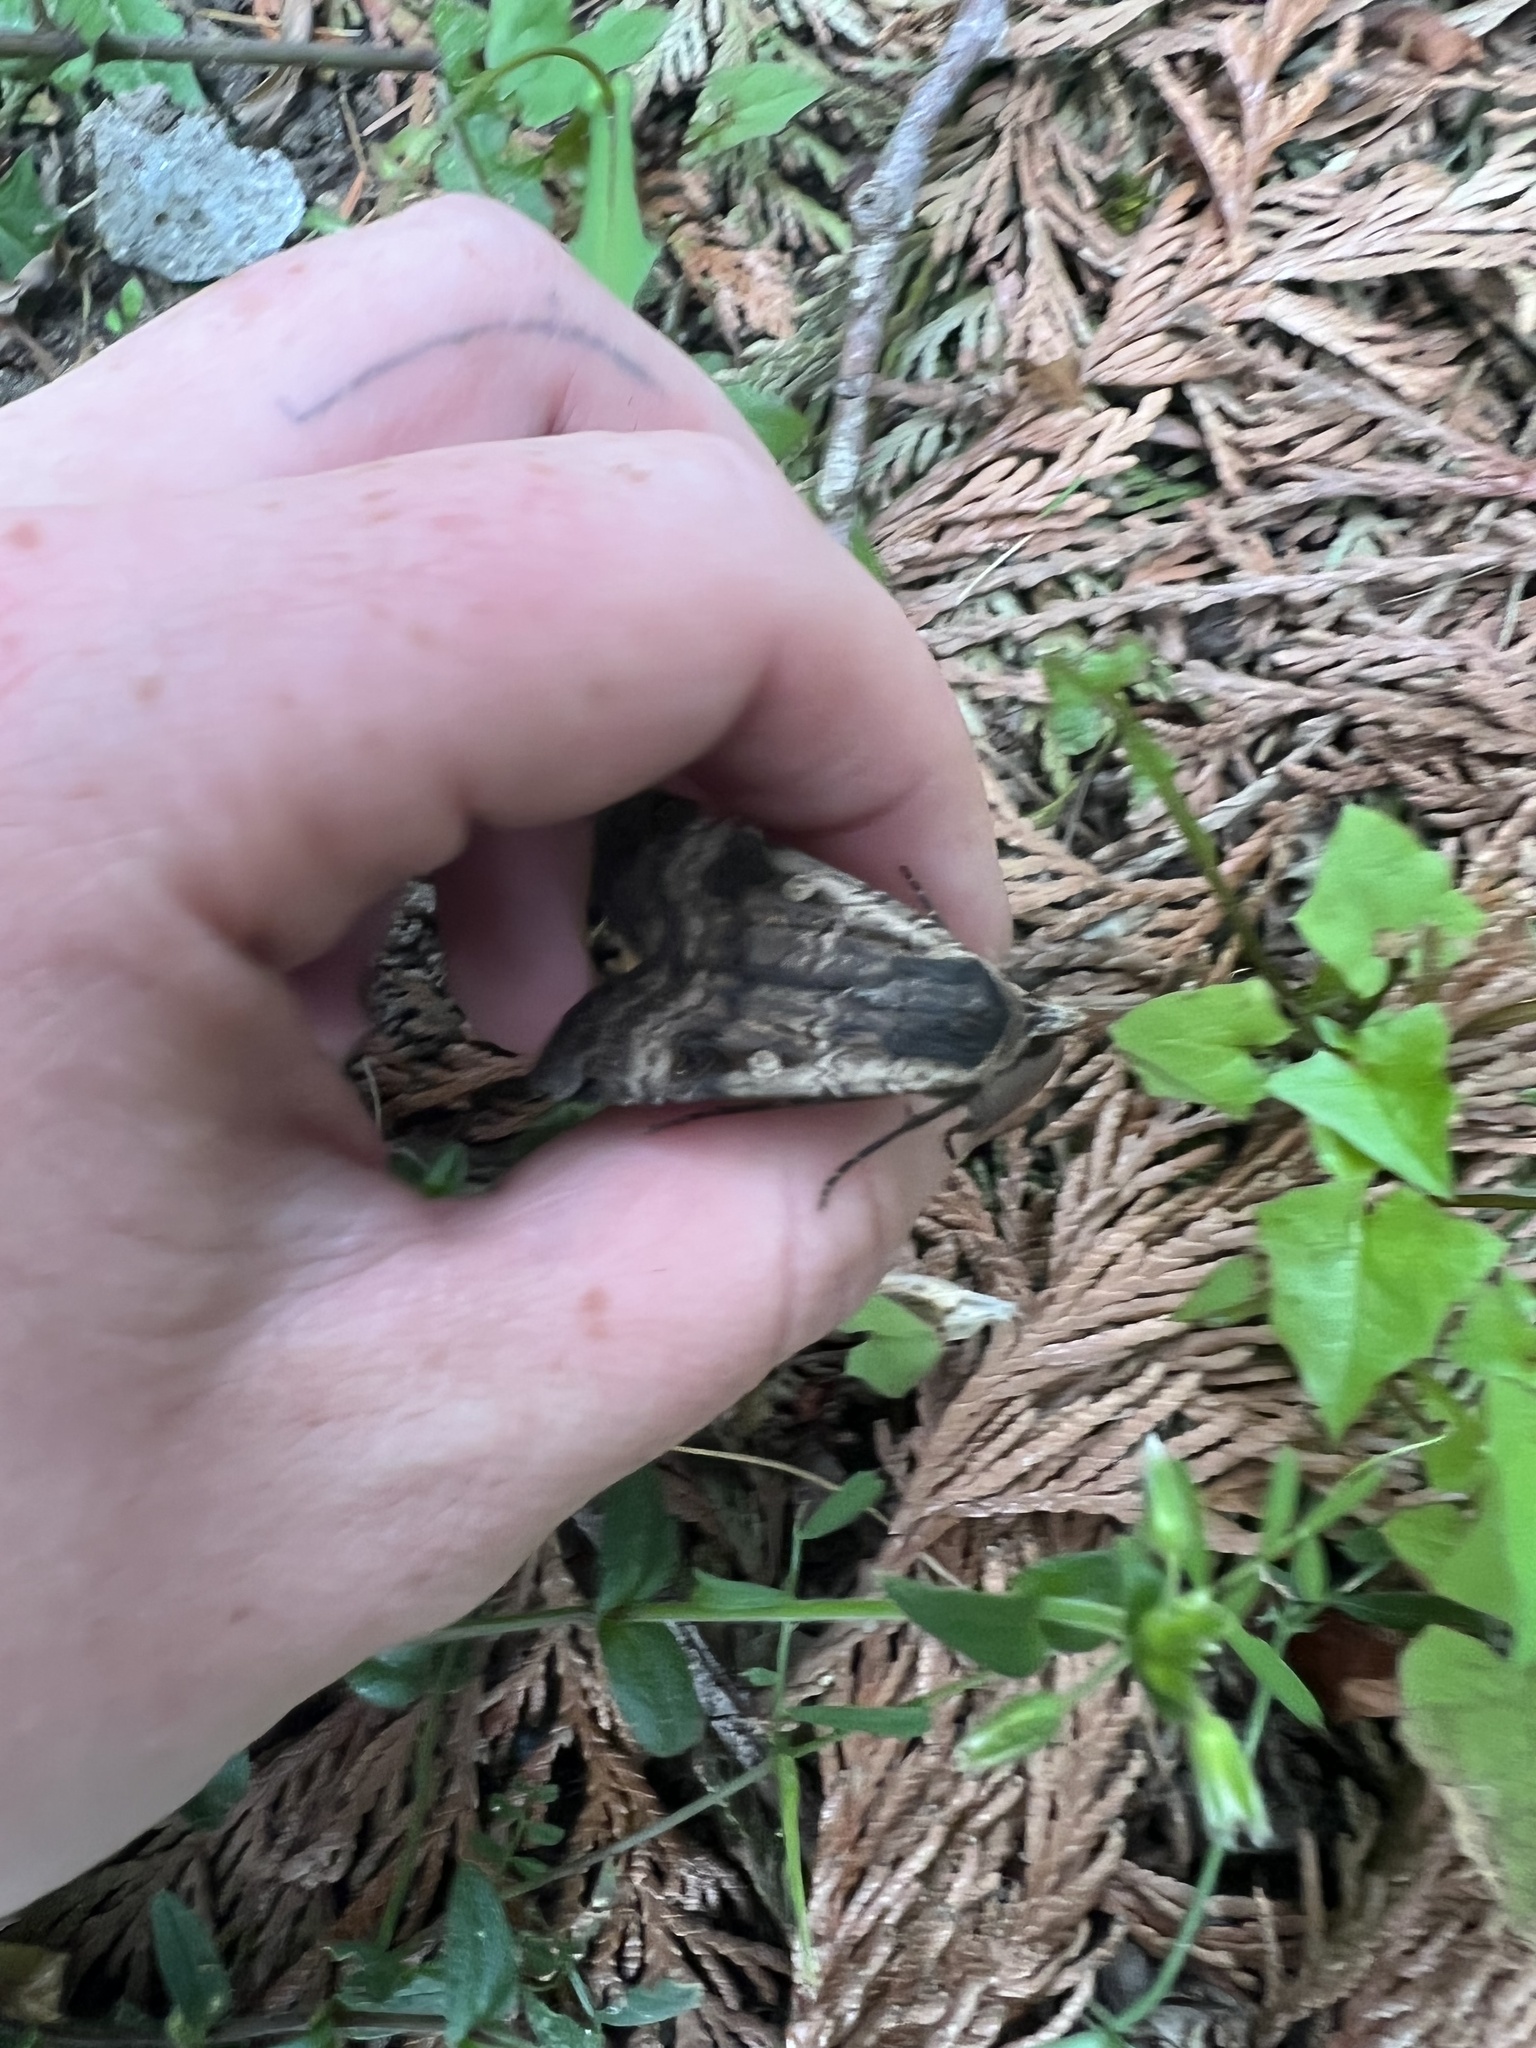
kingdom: Animalia
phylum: Arthropoda
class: Insecta
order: Lepidoptera
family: Noctuidae
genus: Noctua
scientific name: Noctua pronuba
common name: Large yellow underwing
